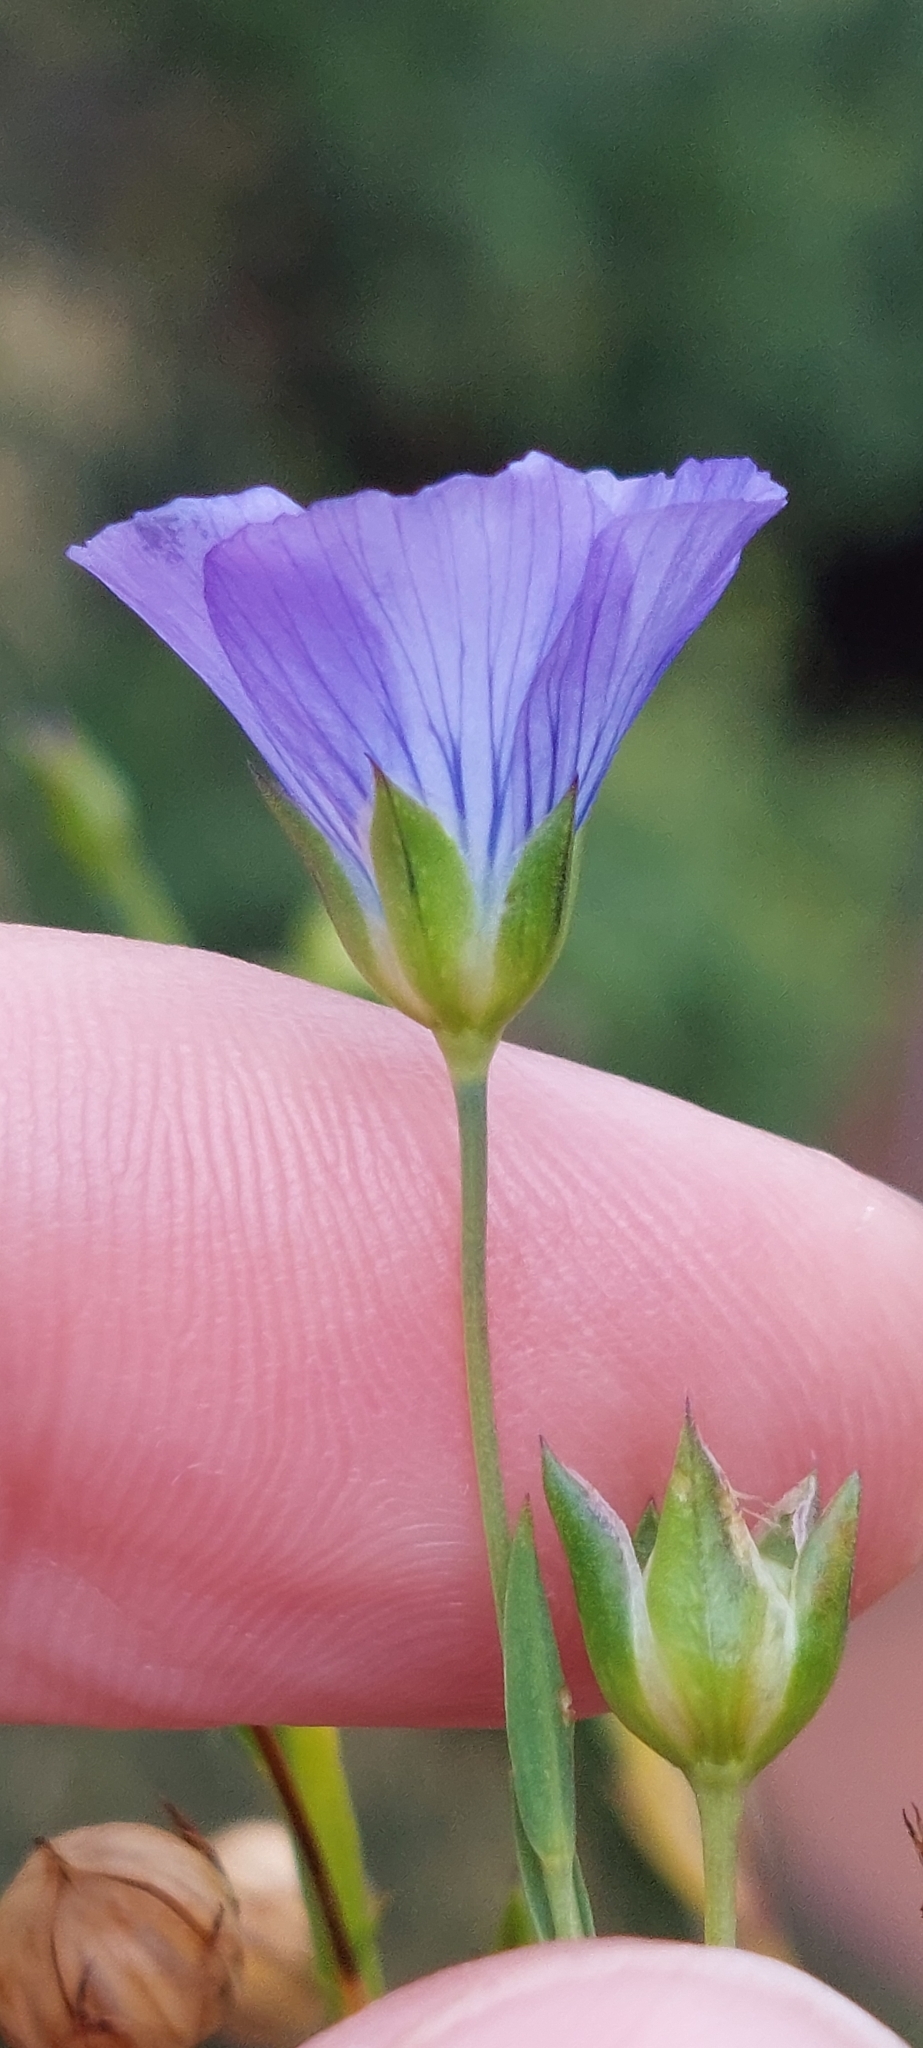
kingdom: Plantae
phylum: Tracheophyta
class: Magnoliopsida
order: Malpighiales
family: Linaceae
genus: Linum
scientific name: Linum usitatissimum
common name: Flax
